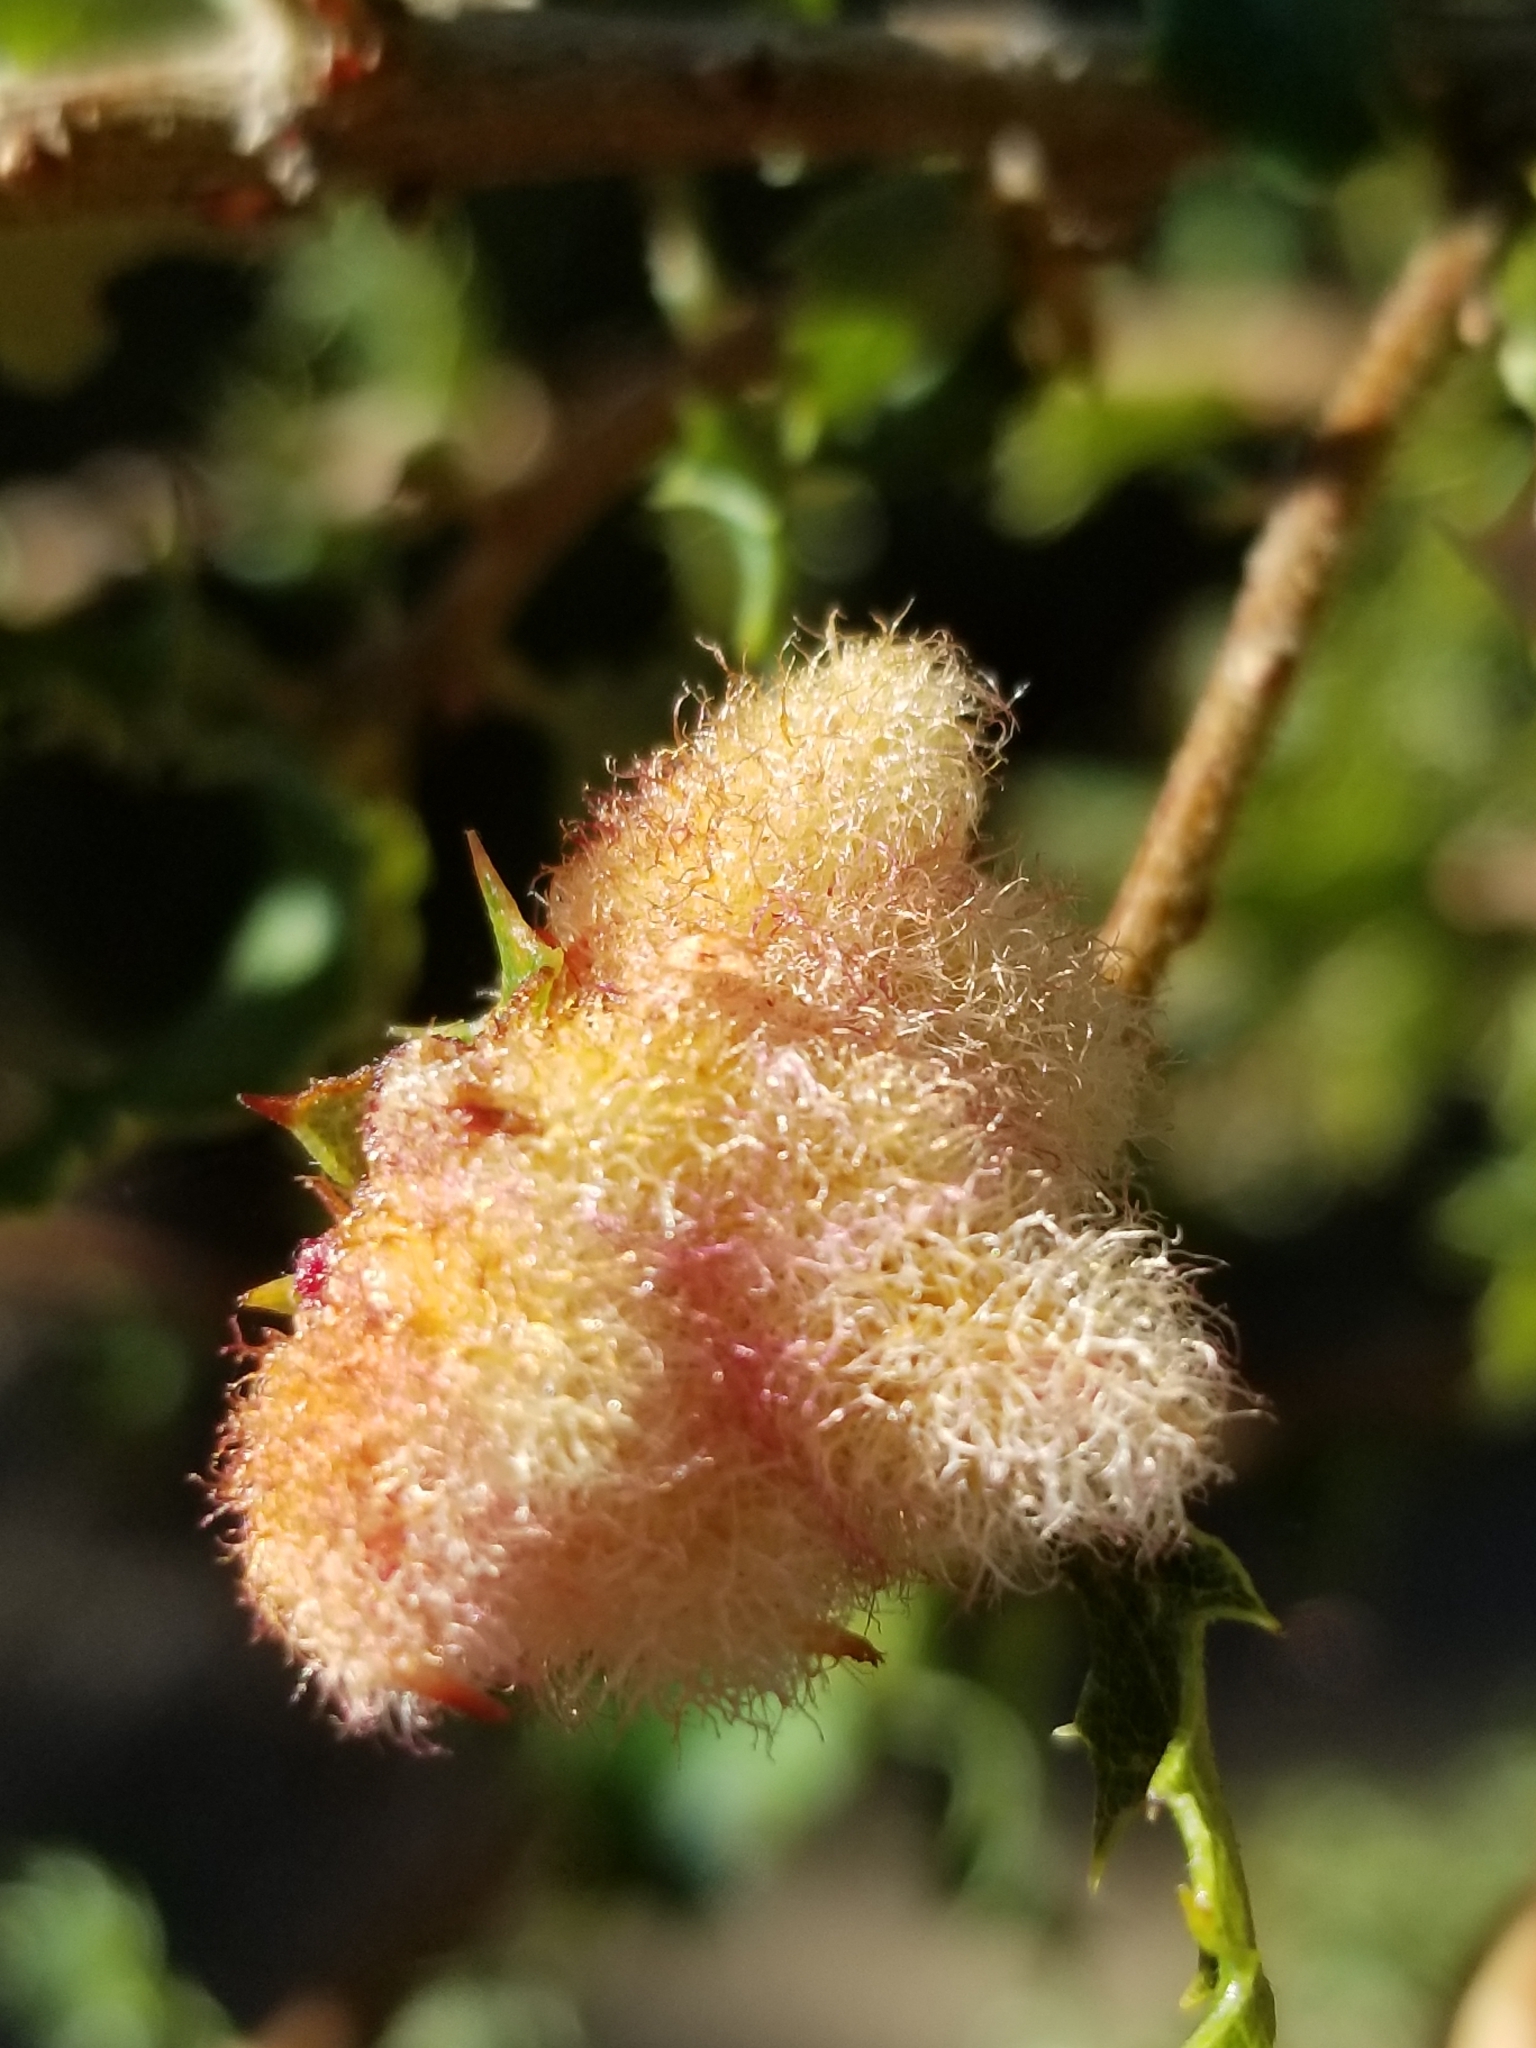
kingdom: Animalia
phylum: Arthropoda
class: Insecta
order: Hymenoptera
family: Cynipidae
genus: Andricus
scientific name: Andricus
